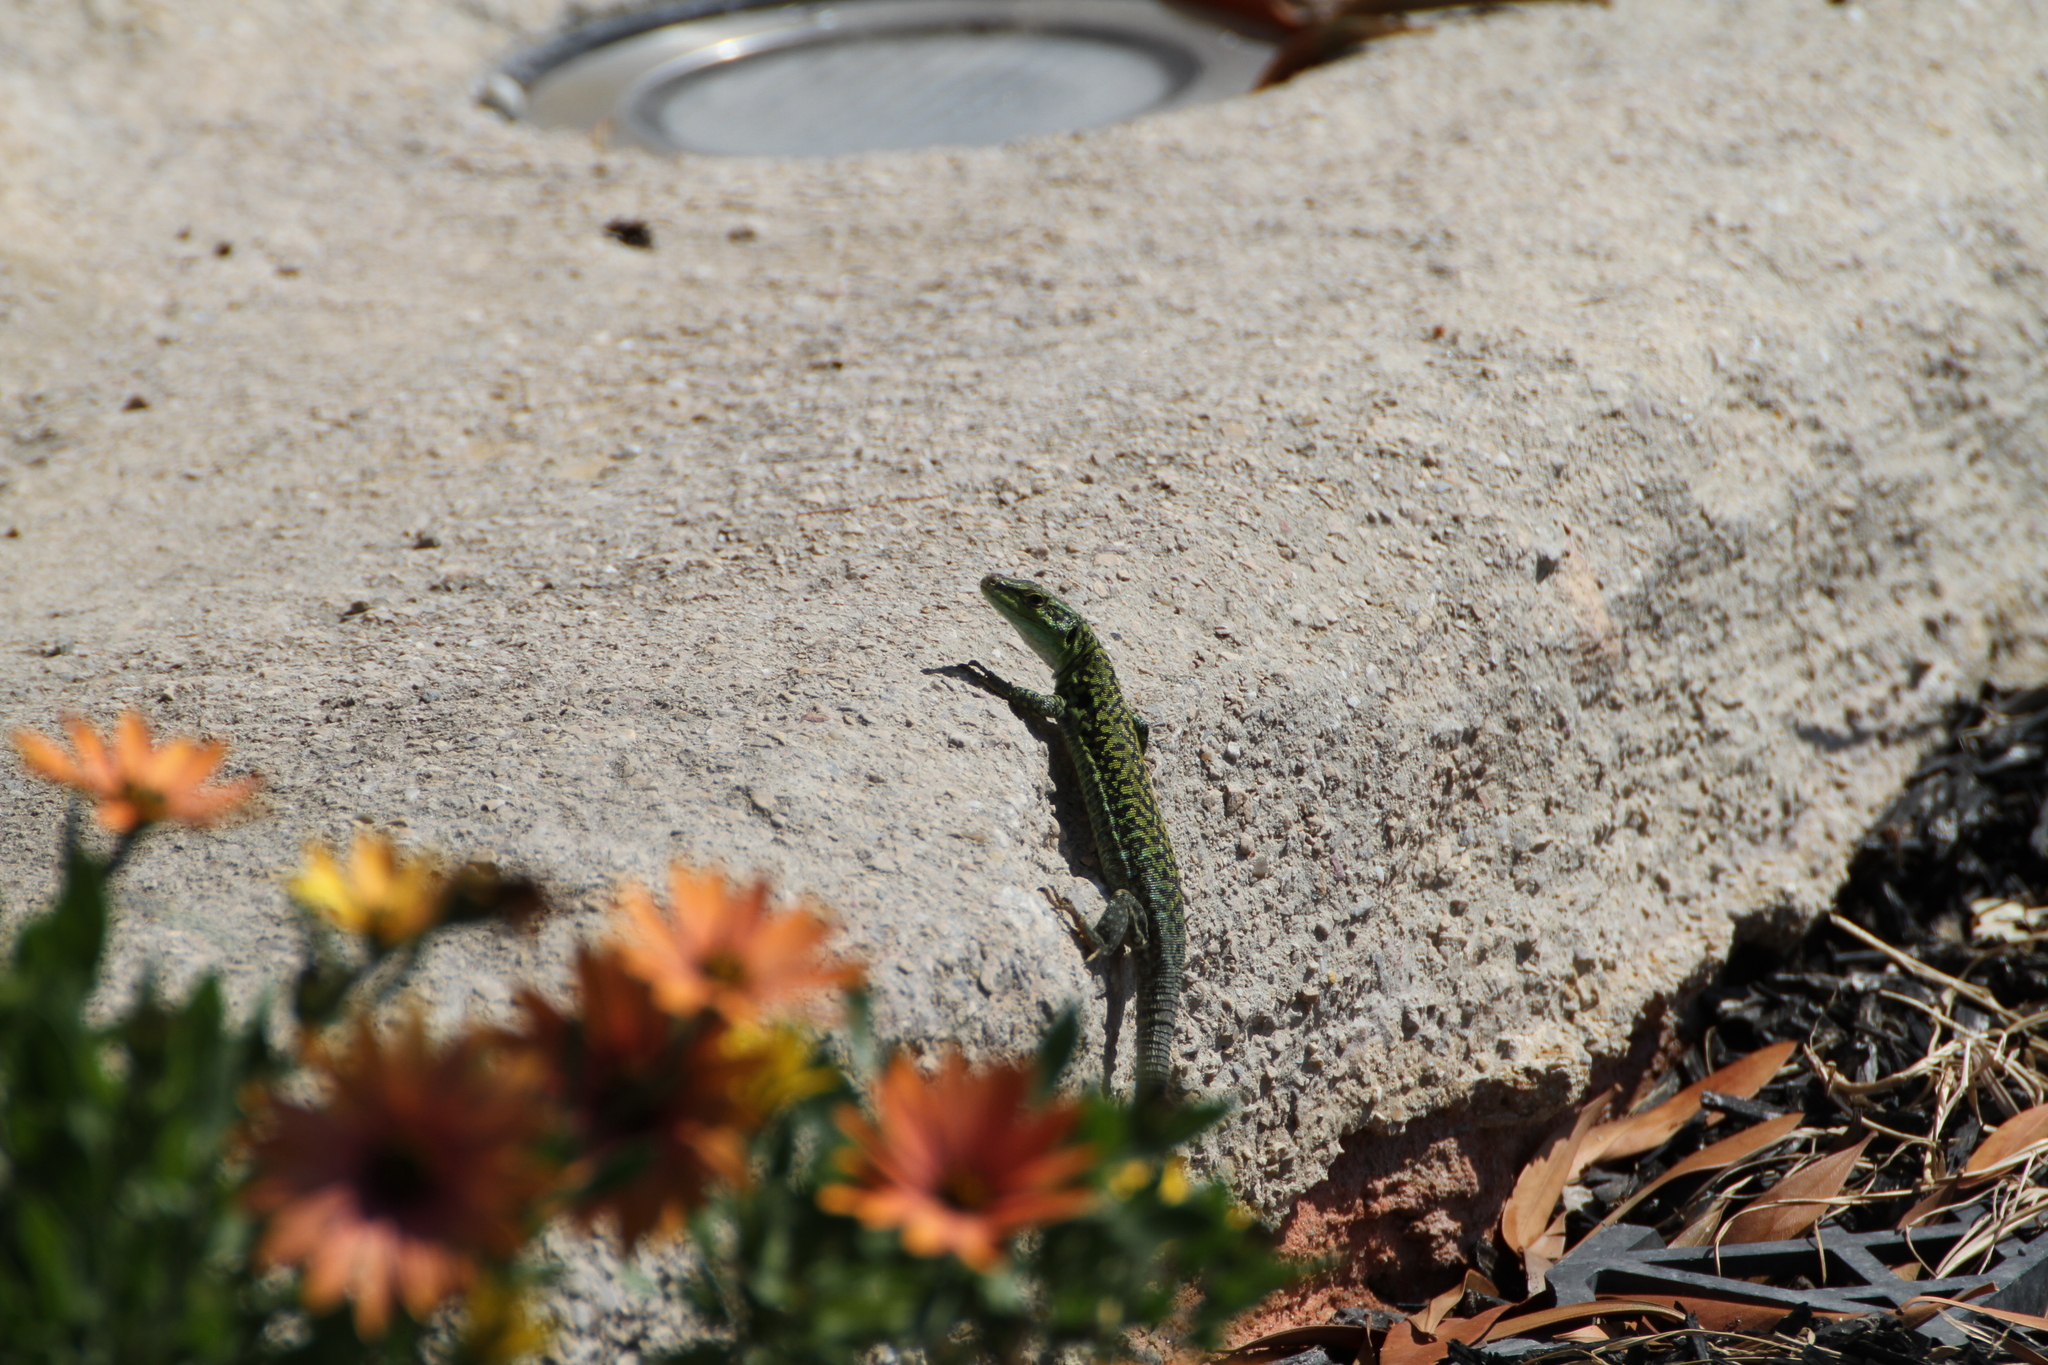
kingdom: Animalia
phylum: Chordata
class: Squamata
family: Lacertidae
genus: Podarcis
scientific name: Podarcis siculus
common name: Italian wall lizard
